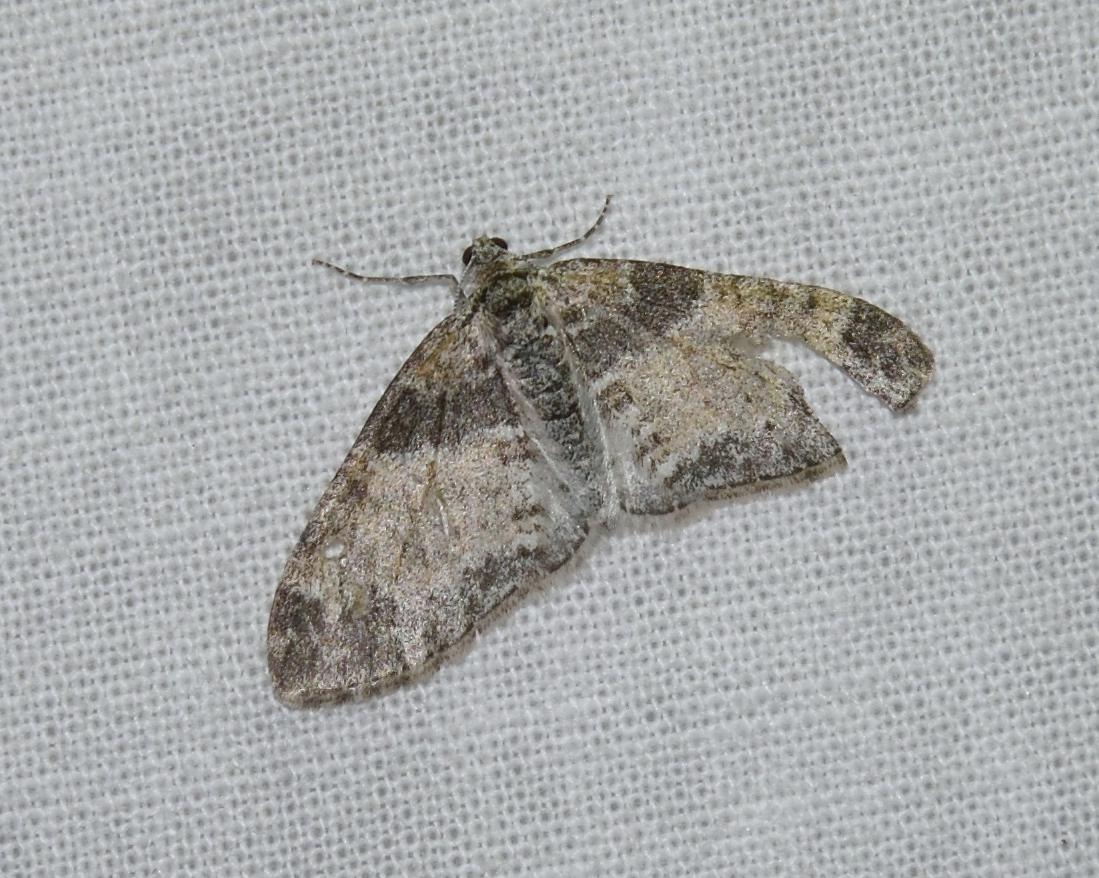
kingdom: Animalia
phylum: Arthropoda
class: Insecta
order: Lepidoptera
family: Geometridae
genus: Lobophora
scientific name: Lobophora halterata
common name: Seraphim
